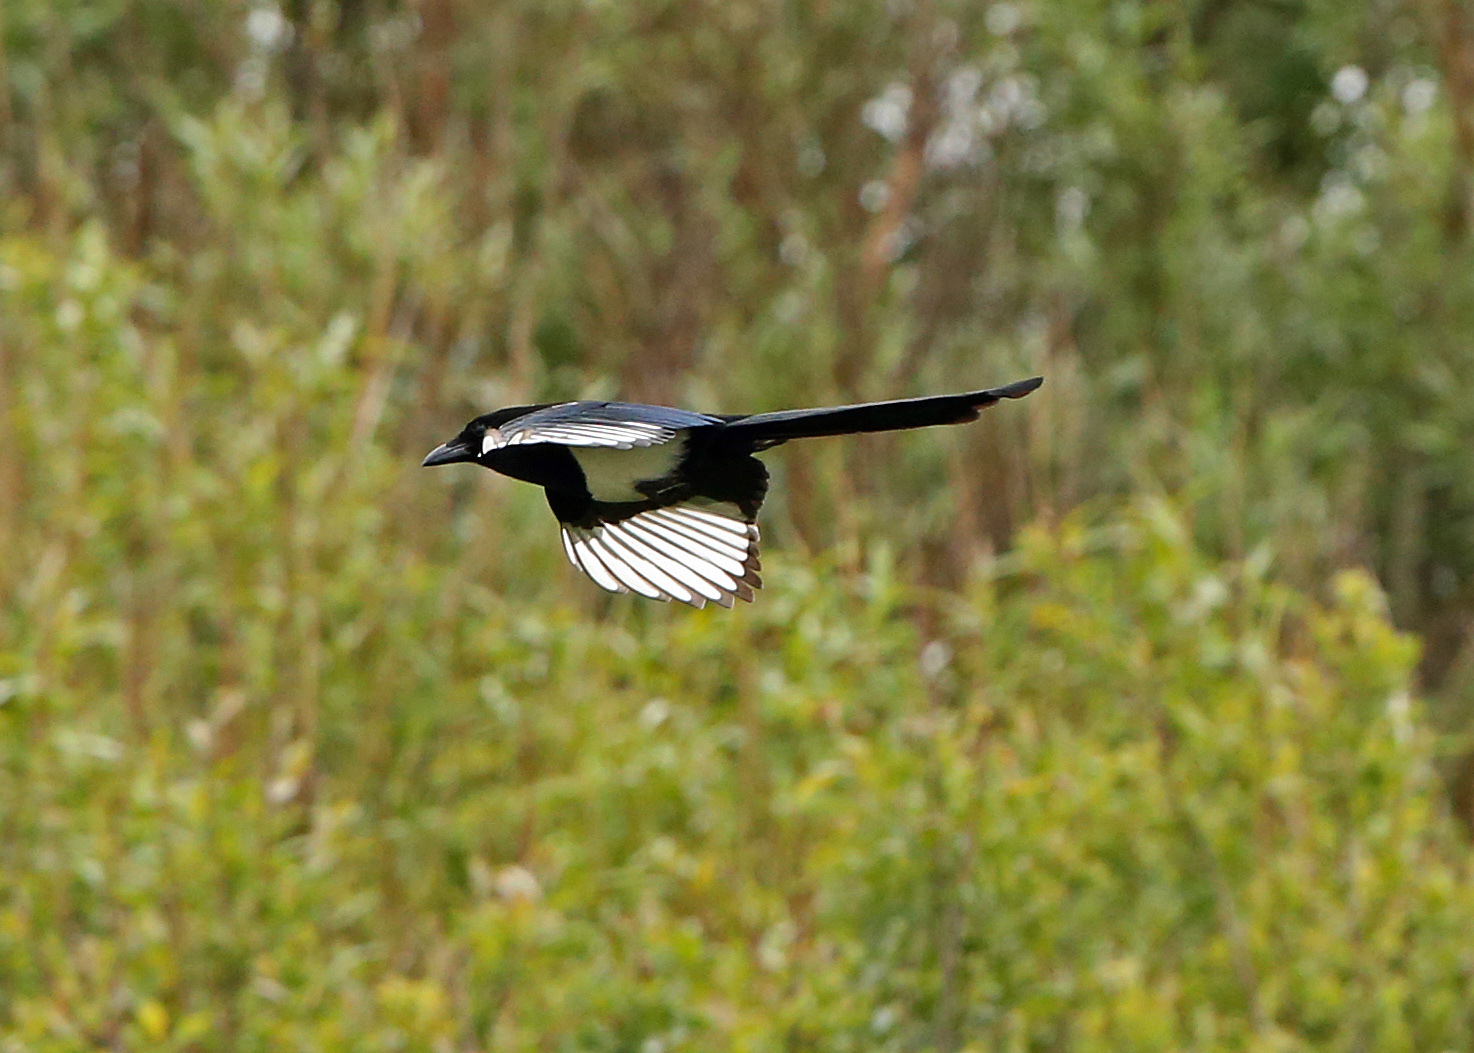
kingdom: Animalia
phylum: Chordata
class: Aves
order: Passeriformes
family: Corvidae
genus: Pica
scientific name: Pica pica
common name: Eurasian magpie
